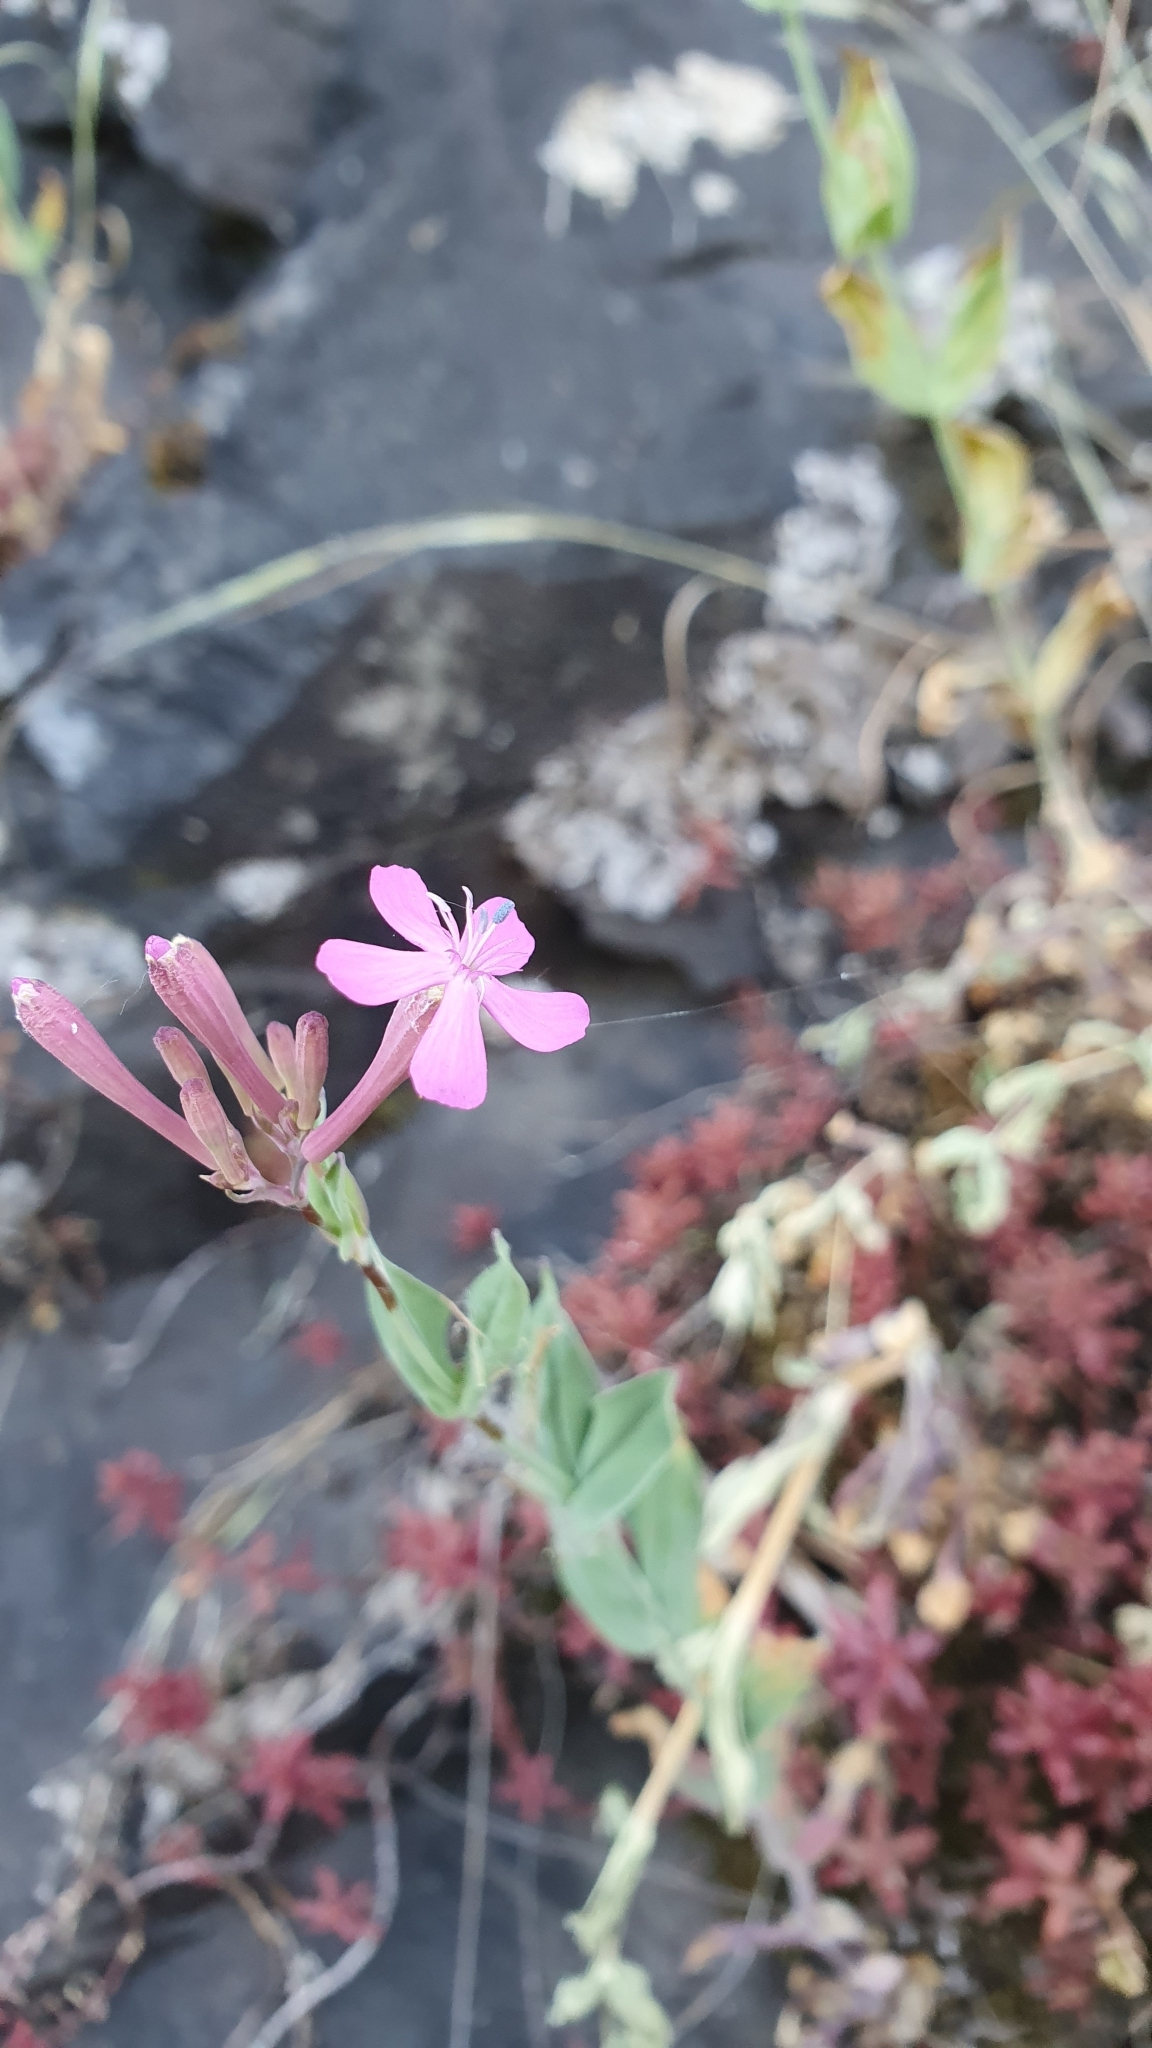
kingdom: Plantae
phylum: Tracheophyta
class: Magnoliopsida
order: Caryophyllales
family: Caryophyllaceae
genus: Atocion
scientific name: Atocion armeria
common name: Sweet william catchfly
